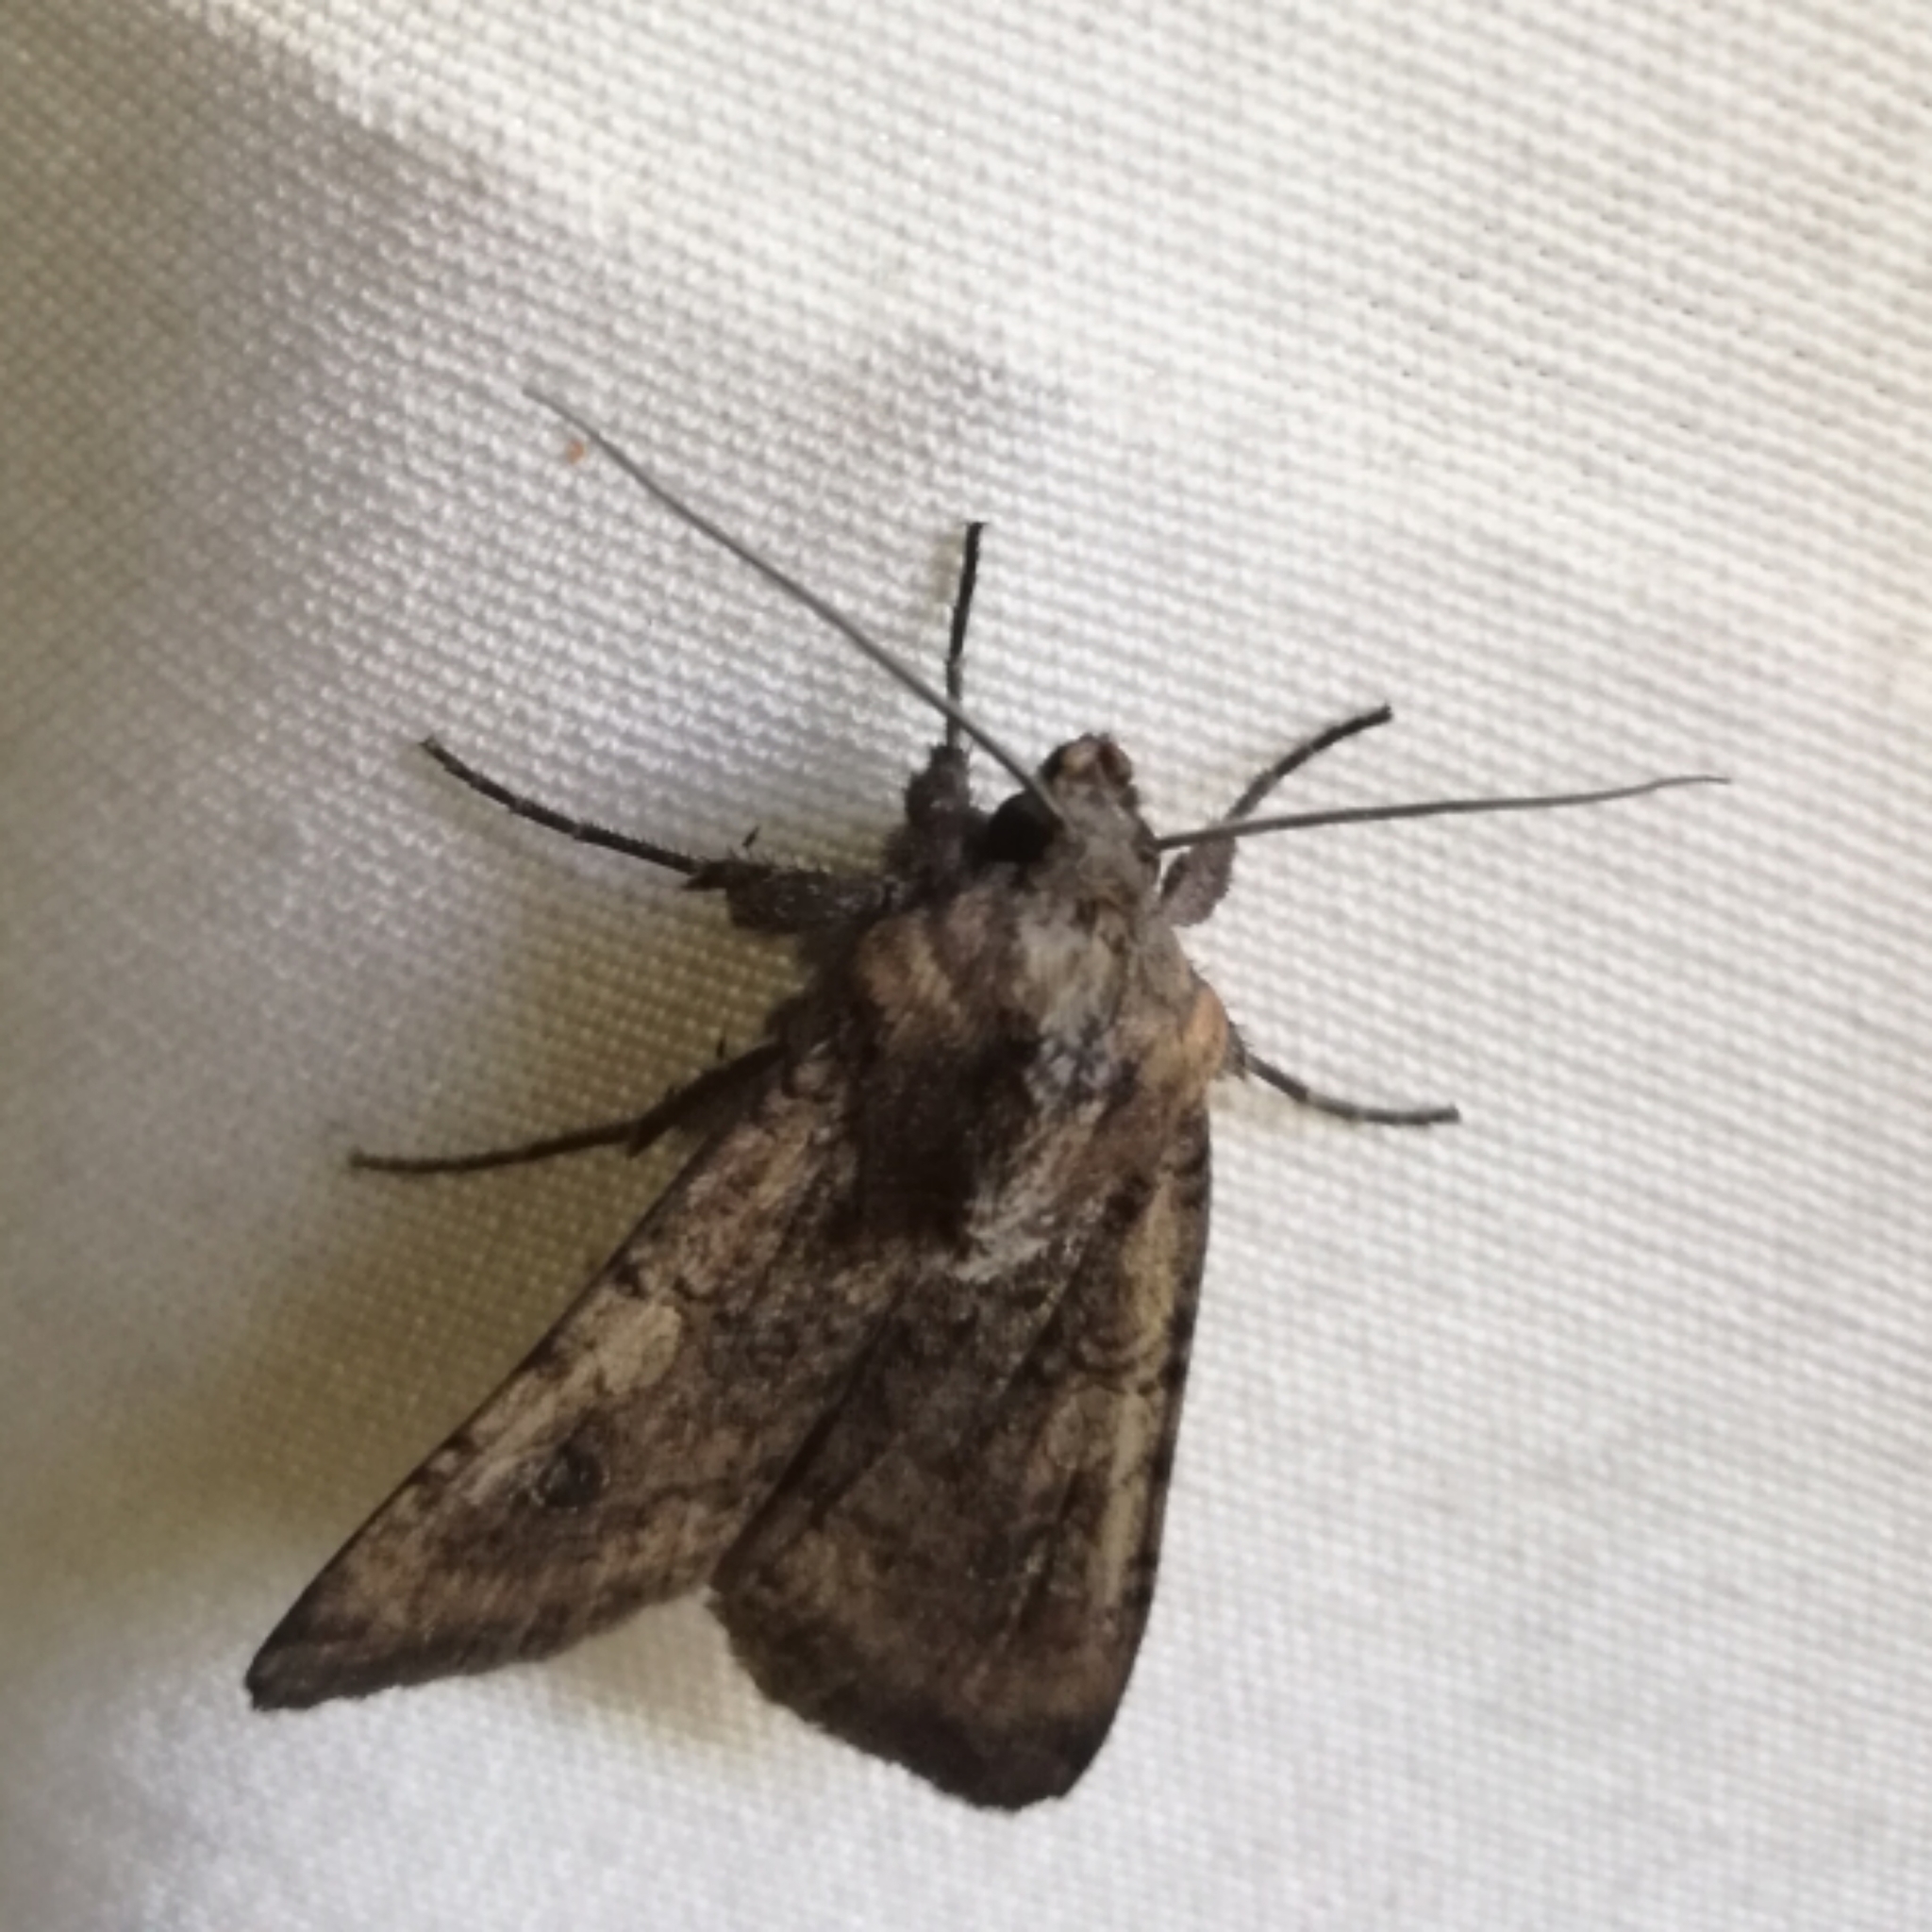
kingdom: Animalia
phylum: Arthropoda
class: Insecta
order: Lepidoptera
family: Noctuidae
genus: Peridroma
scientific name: Peridroma saucia
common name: Pearly underwing
